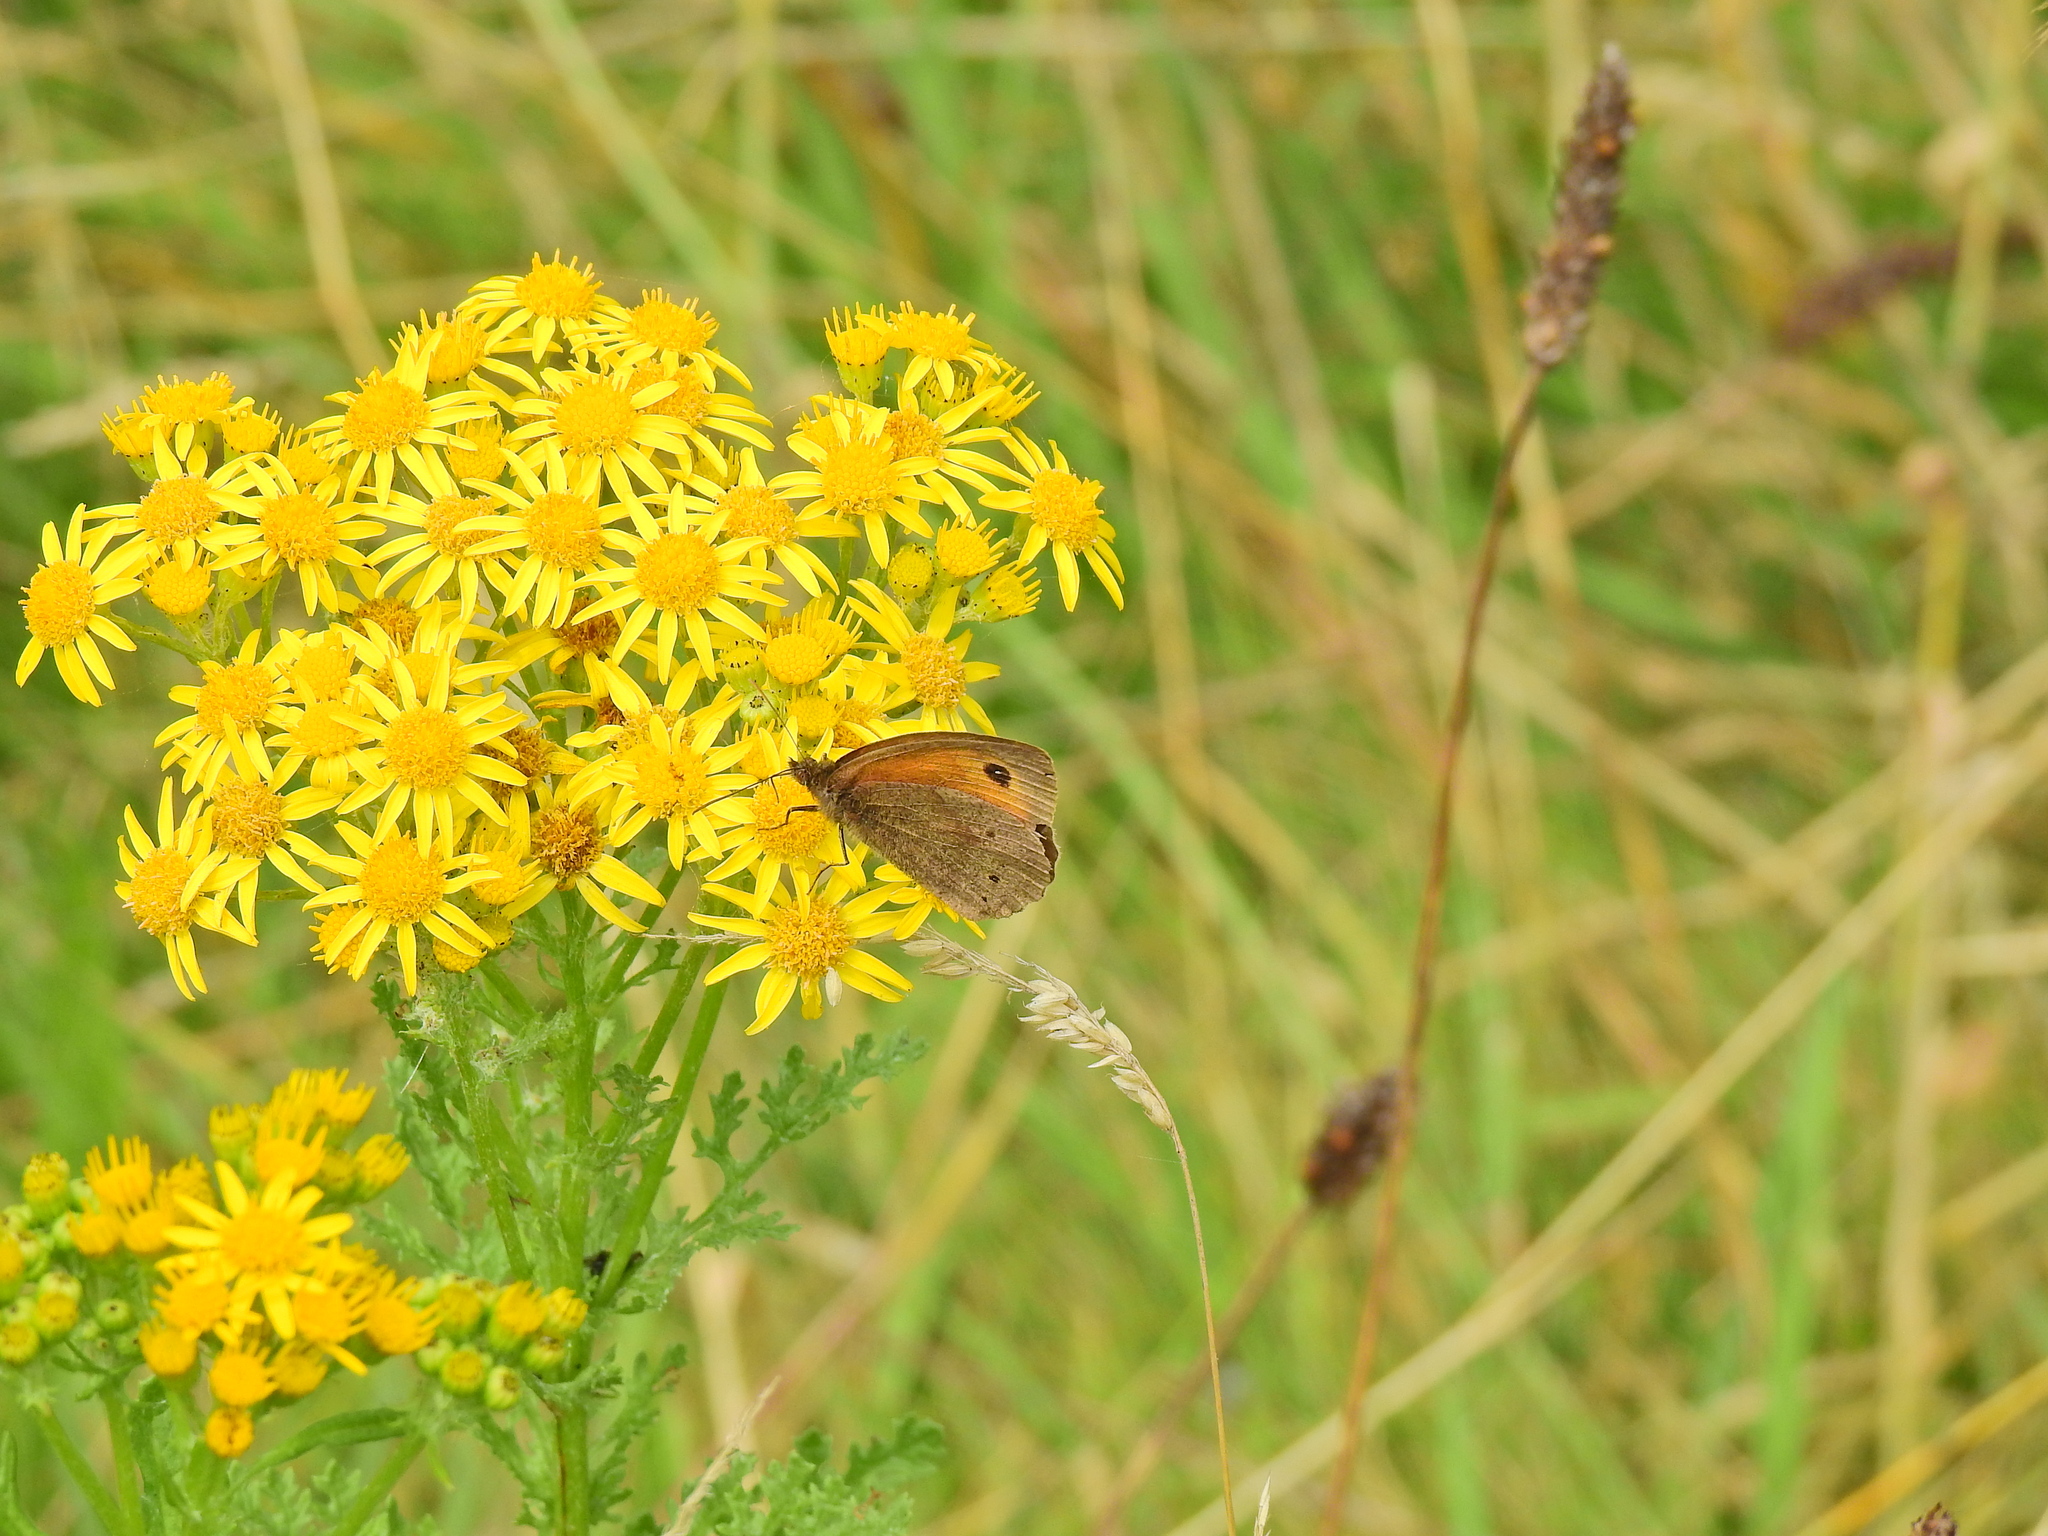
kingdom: Animalia
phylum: Arthropoda
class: Insecta
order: Lepidoptera
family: Nymphalidae
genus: Maniola
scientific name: Maniola jurtina
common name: Meadow brown
